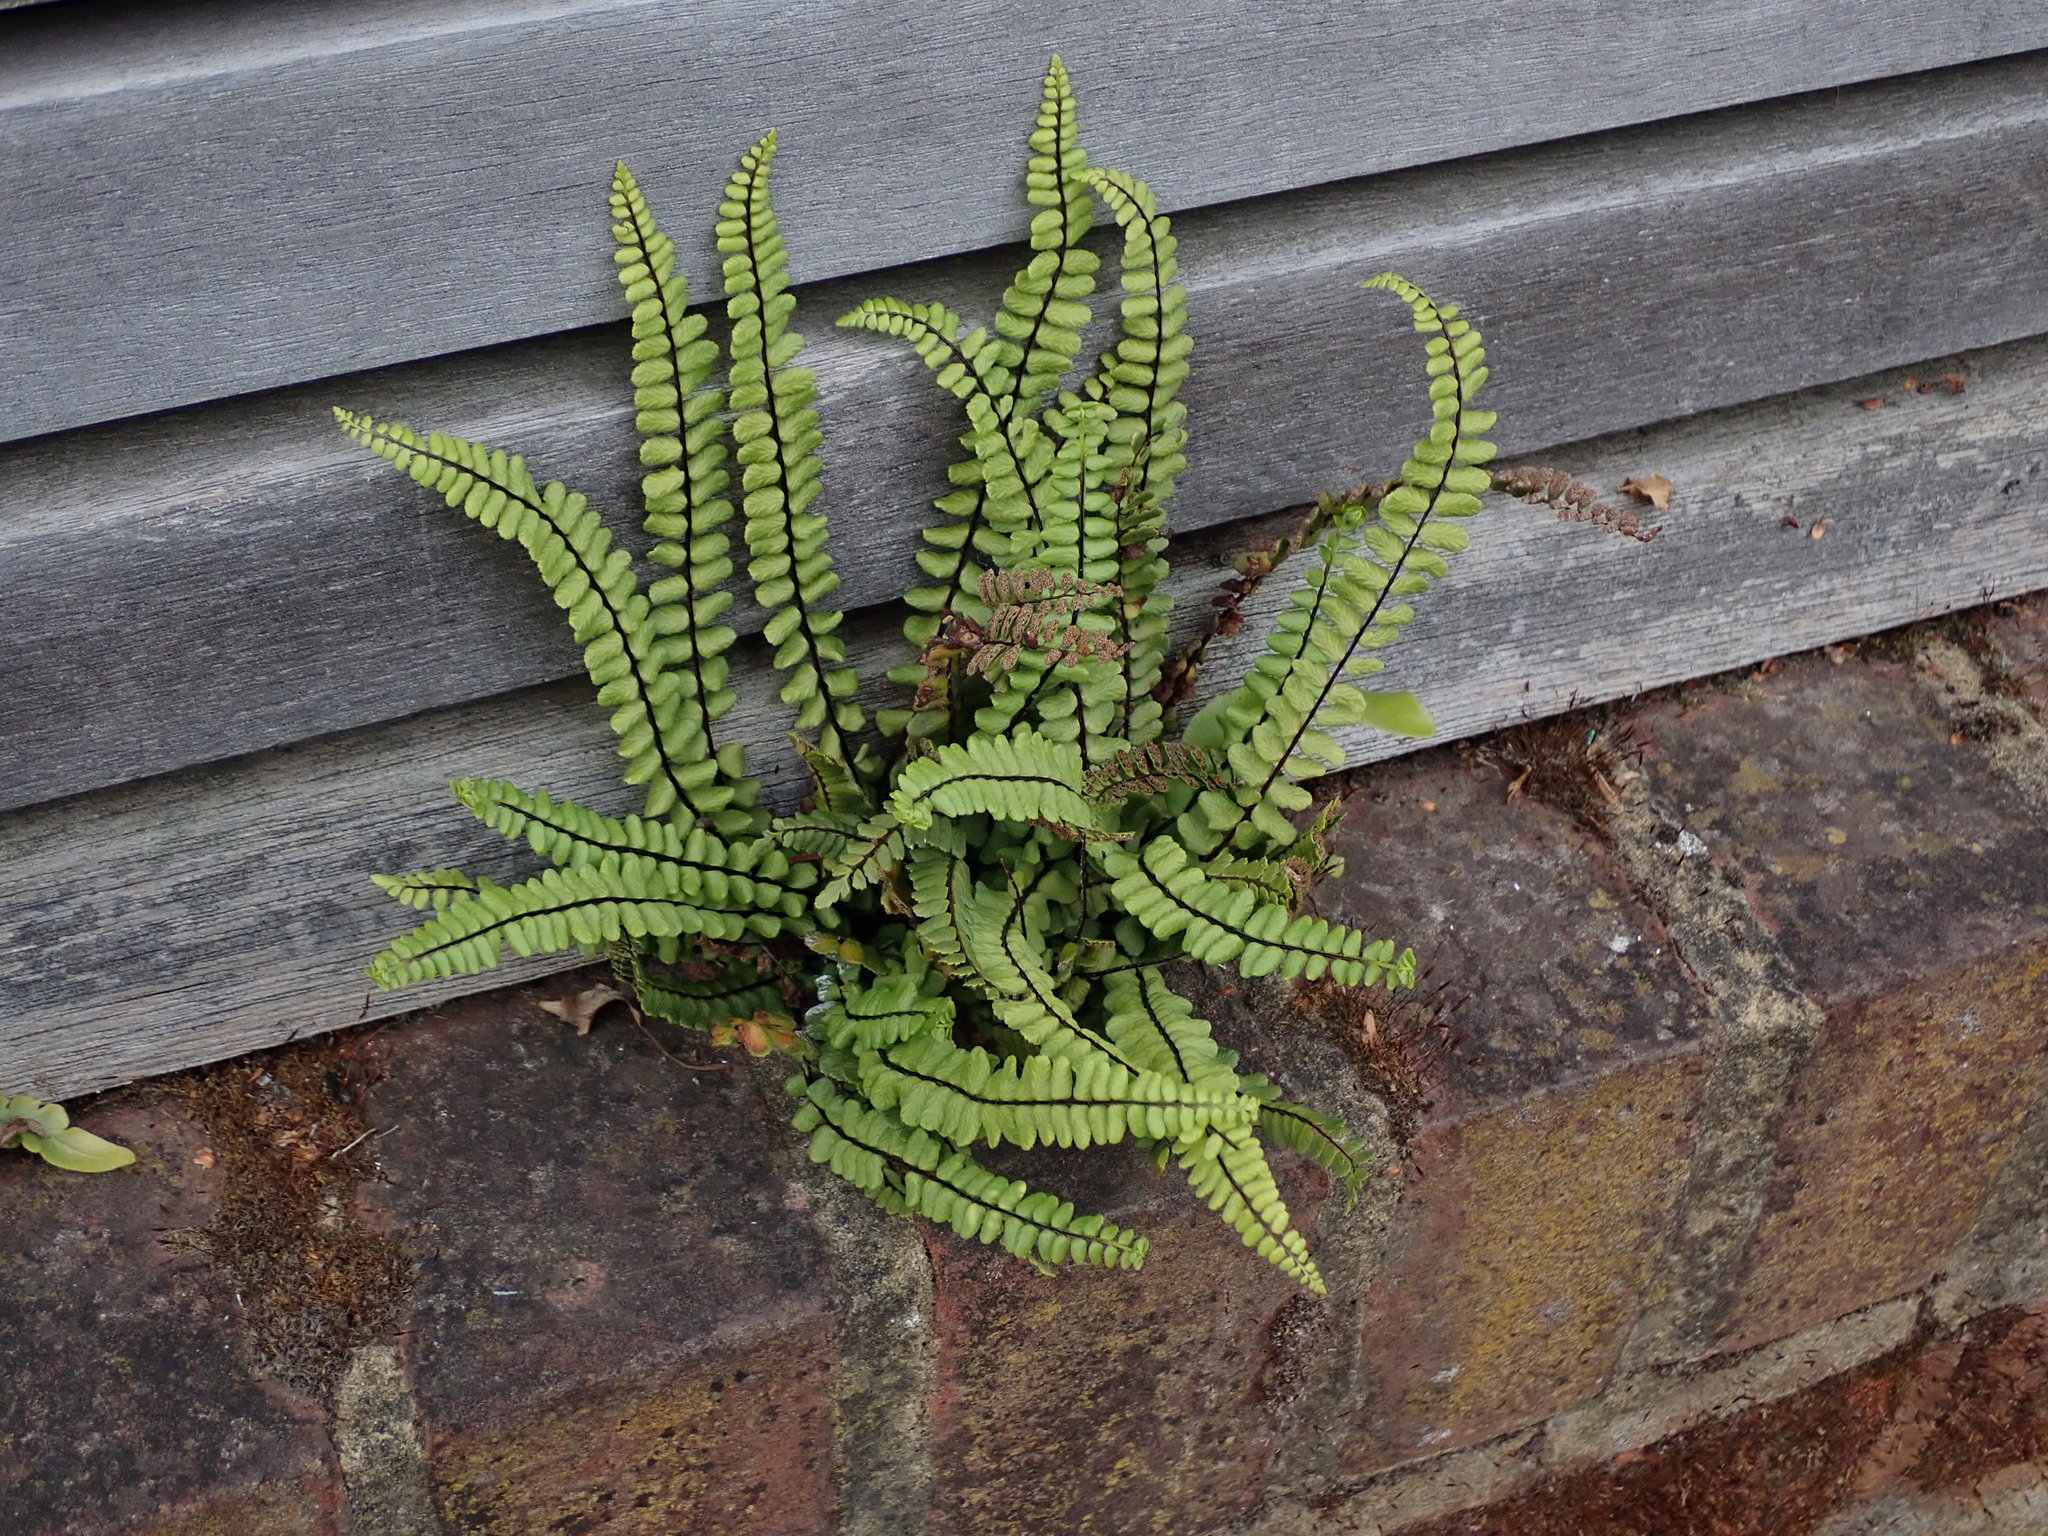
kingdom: Plantae
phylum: Tracheophyta
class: Polypodiopsida
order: Polypodiales
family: Aspleniaceae
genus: Asplenium
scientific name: Asplenium trichomanes
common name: Maidenhair spleenwort
